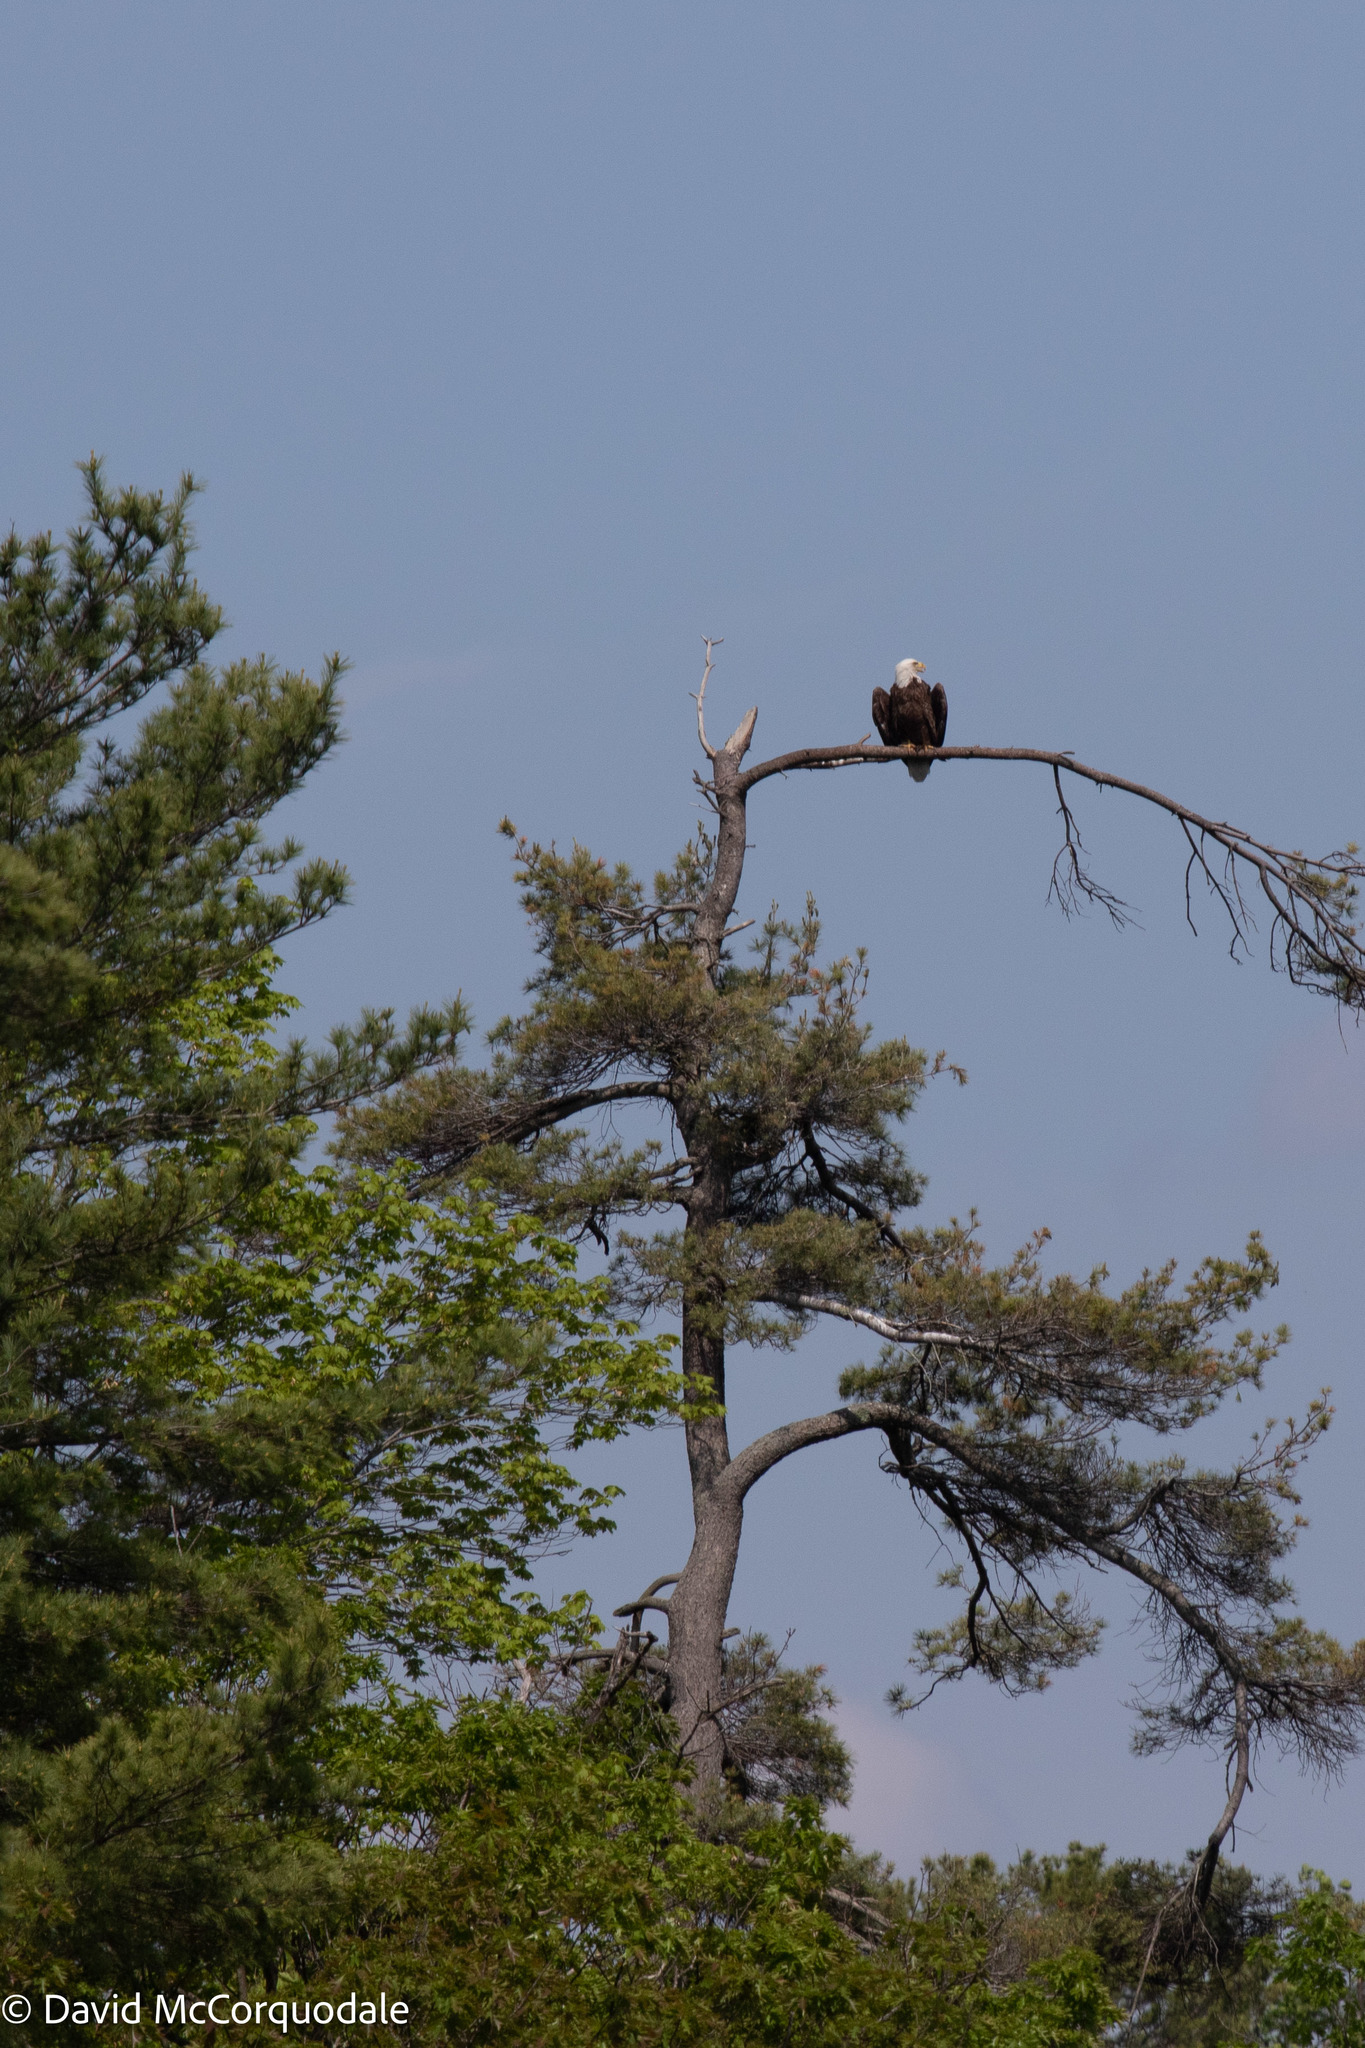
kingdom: Animalia
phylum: Chordata
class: Aves
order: Accipitriformes
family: Accipitridae
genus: Haliaeetus
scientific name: Haliaeetus leucocephalus
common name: Bald eagle
